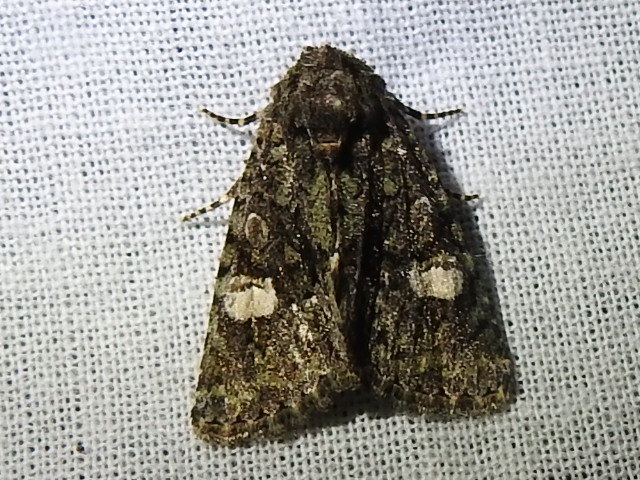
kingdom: Animalia
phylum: Arthropoda
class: Insecta
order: Lepidoptera
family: Noctuidae
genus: Phosphila
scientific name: Phosphila miselioides
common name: Spotted phosphila moth
